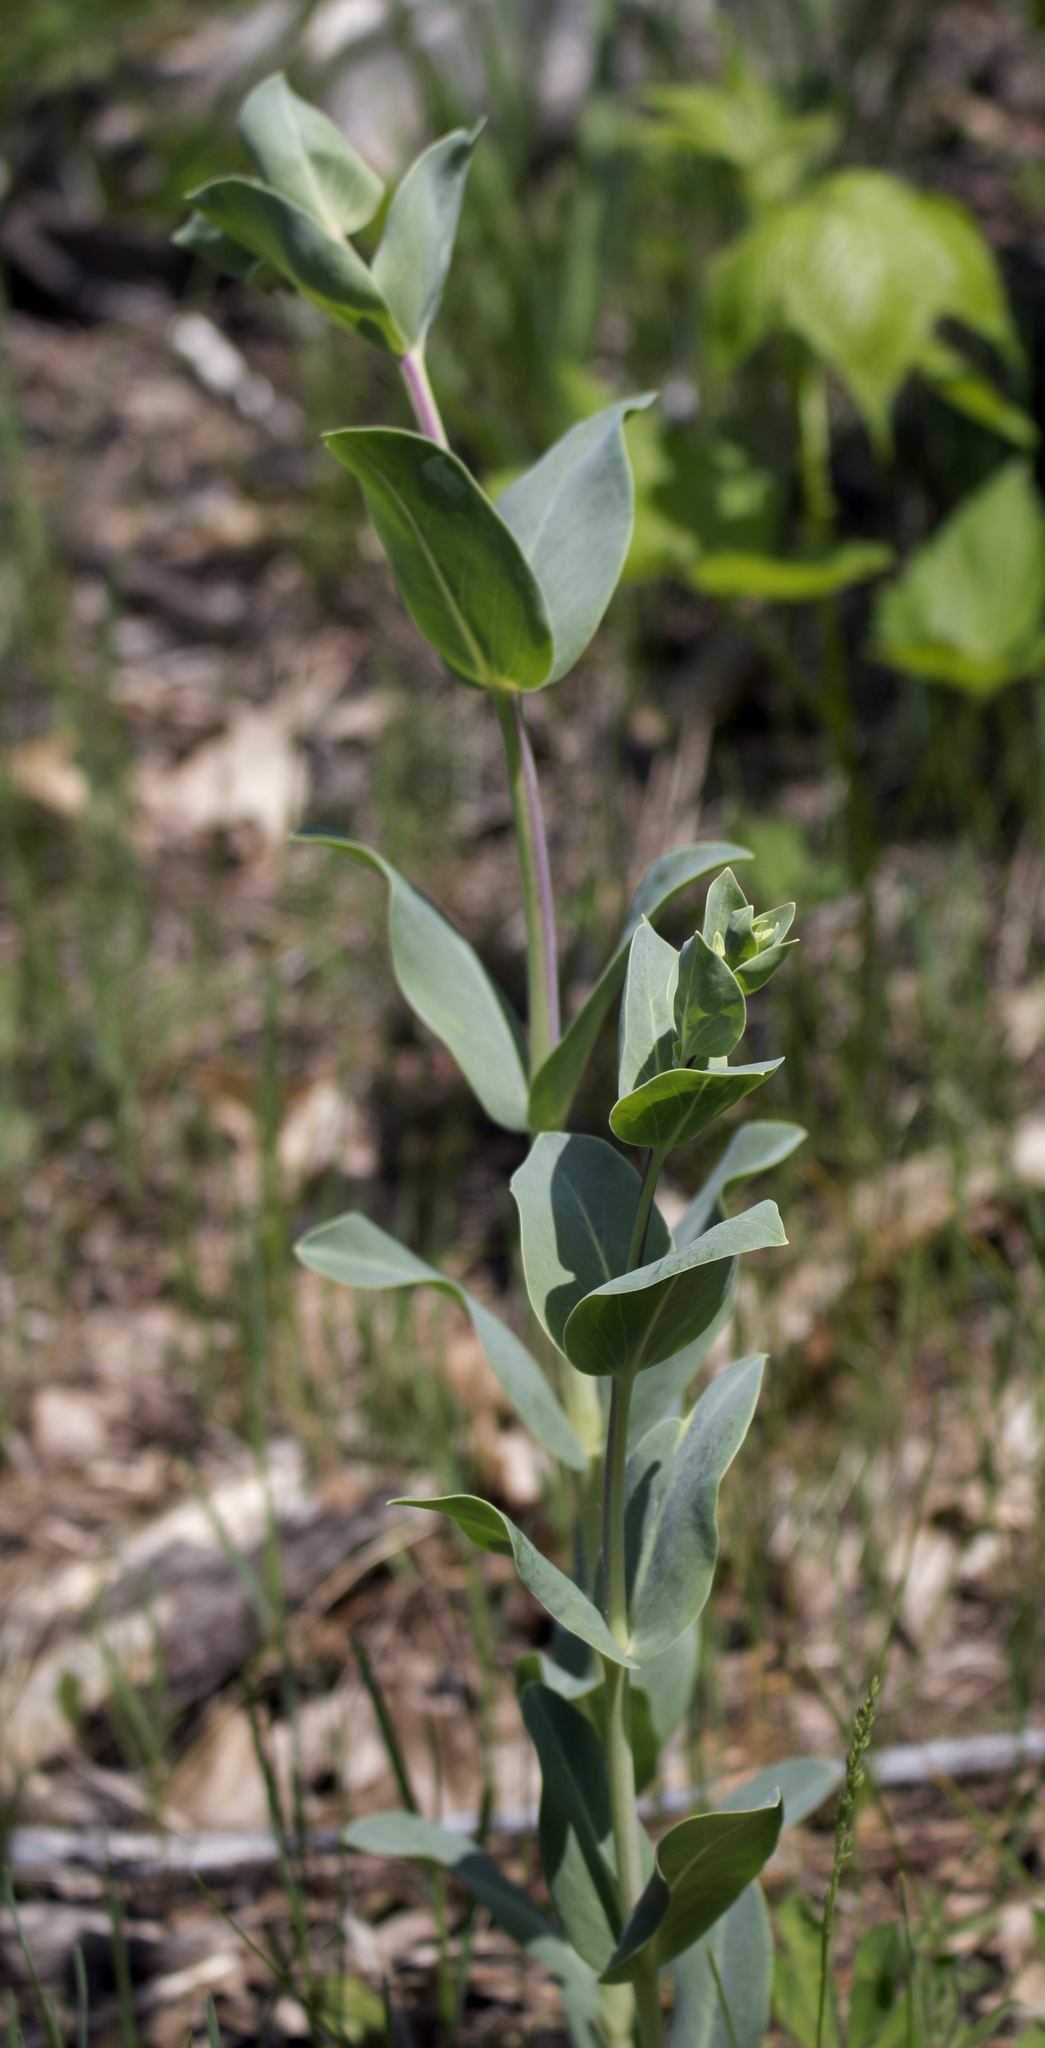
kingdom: Plantae
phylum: Tracheophyta
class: Magnoliopsida
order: Lamiales
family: Plantaginaceae
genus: Penstemon
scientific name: Penstemon
